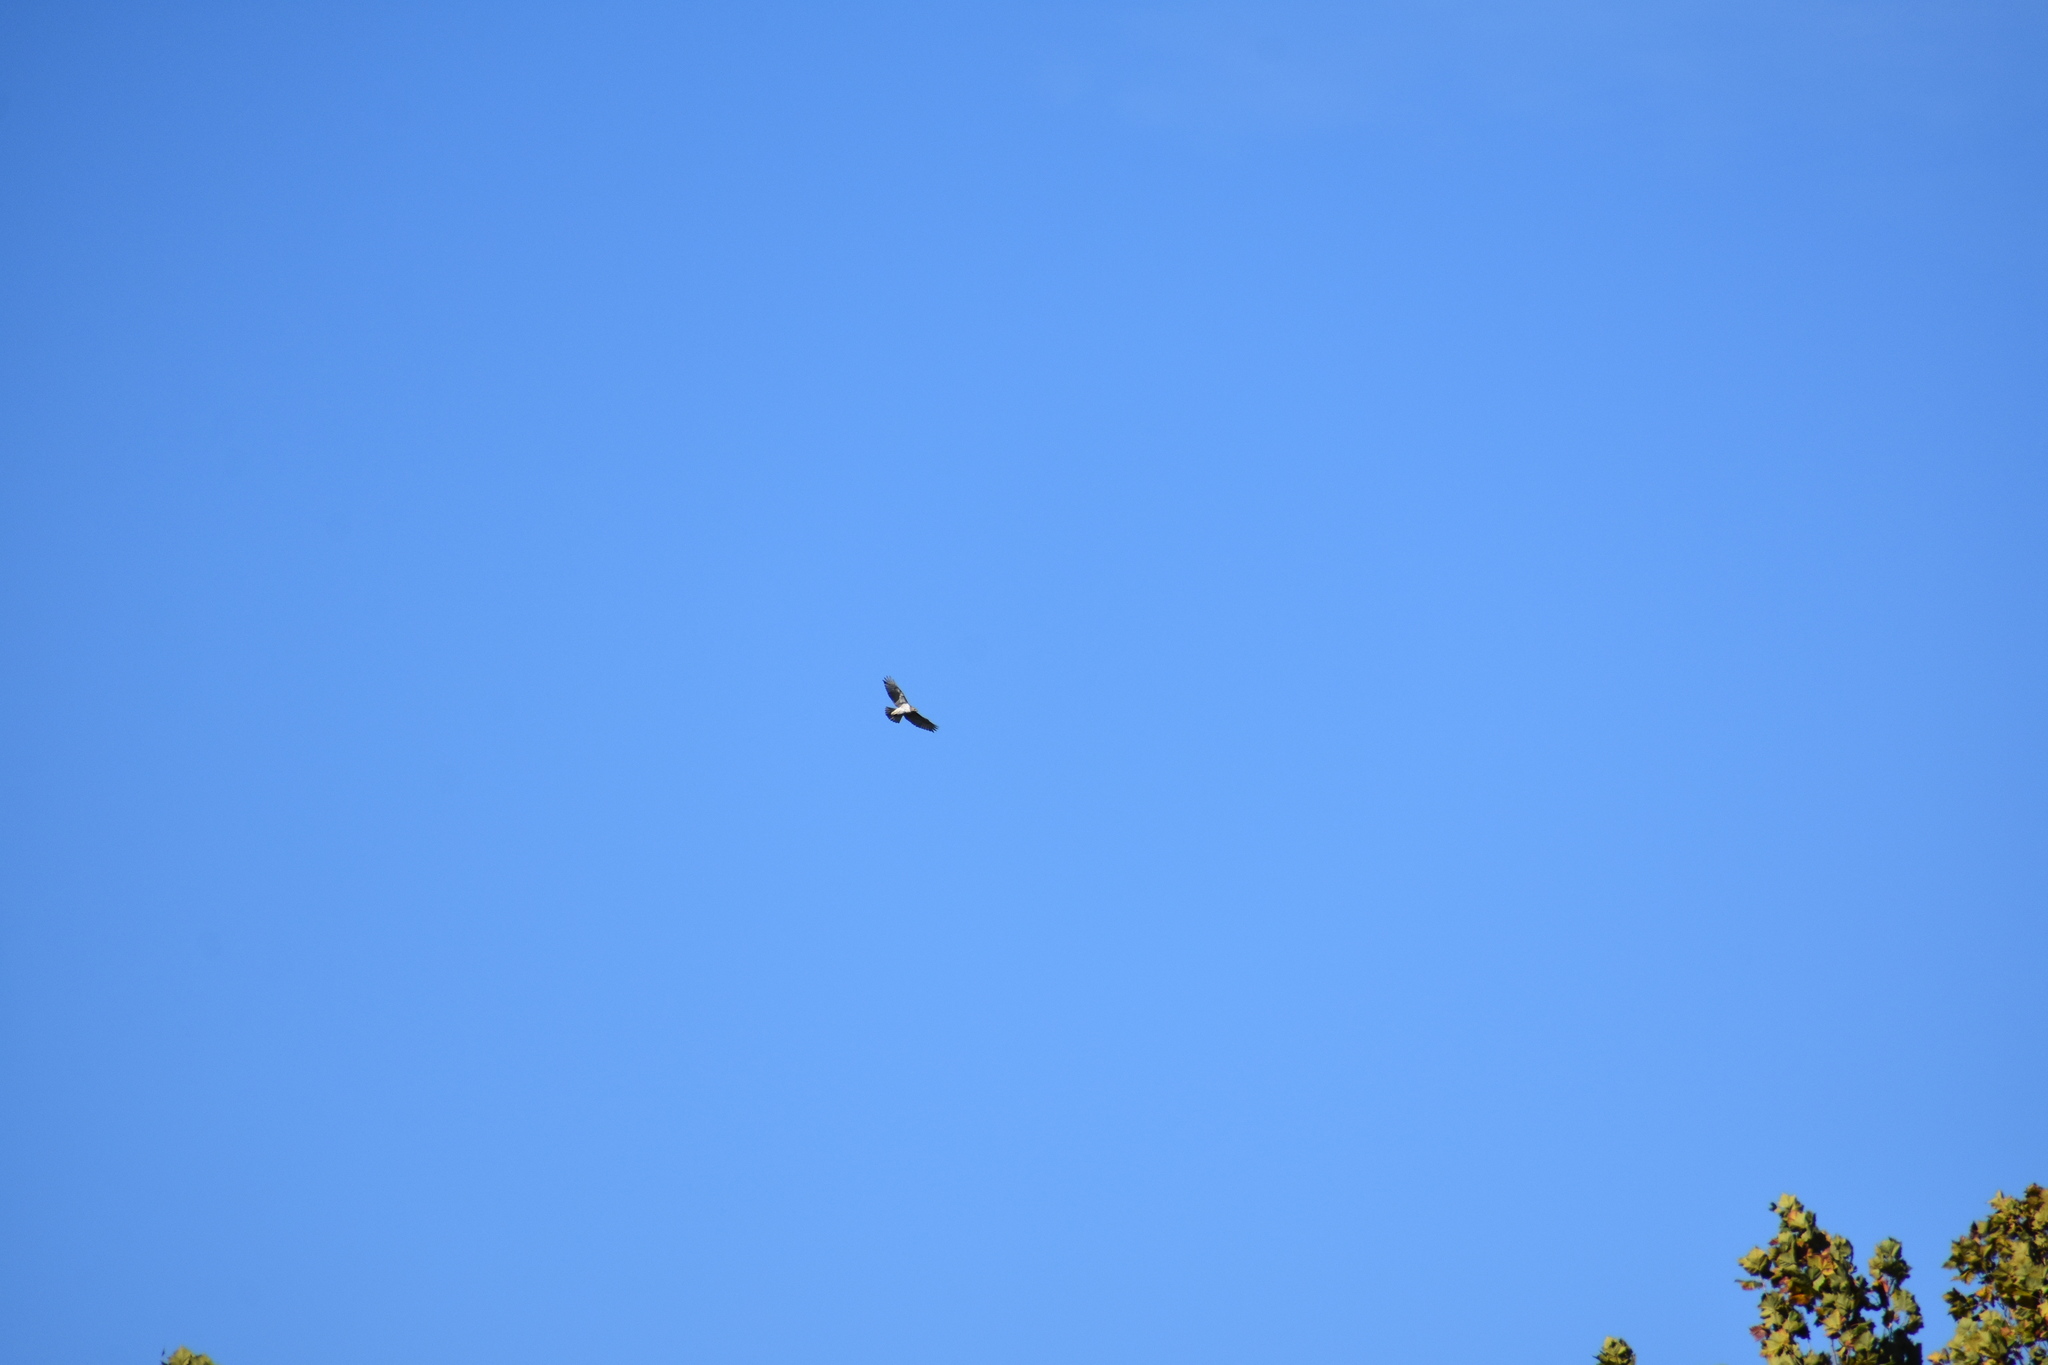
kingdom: Animalia
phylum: Chordata
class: Aves
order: Accipitriformes
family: Accipitridae
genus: Buteo
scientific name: Buteo jamaicensis
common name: Red-tailed hawk
